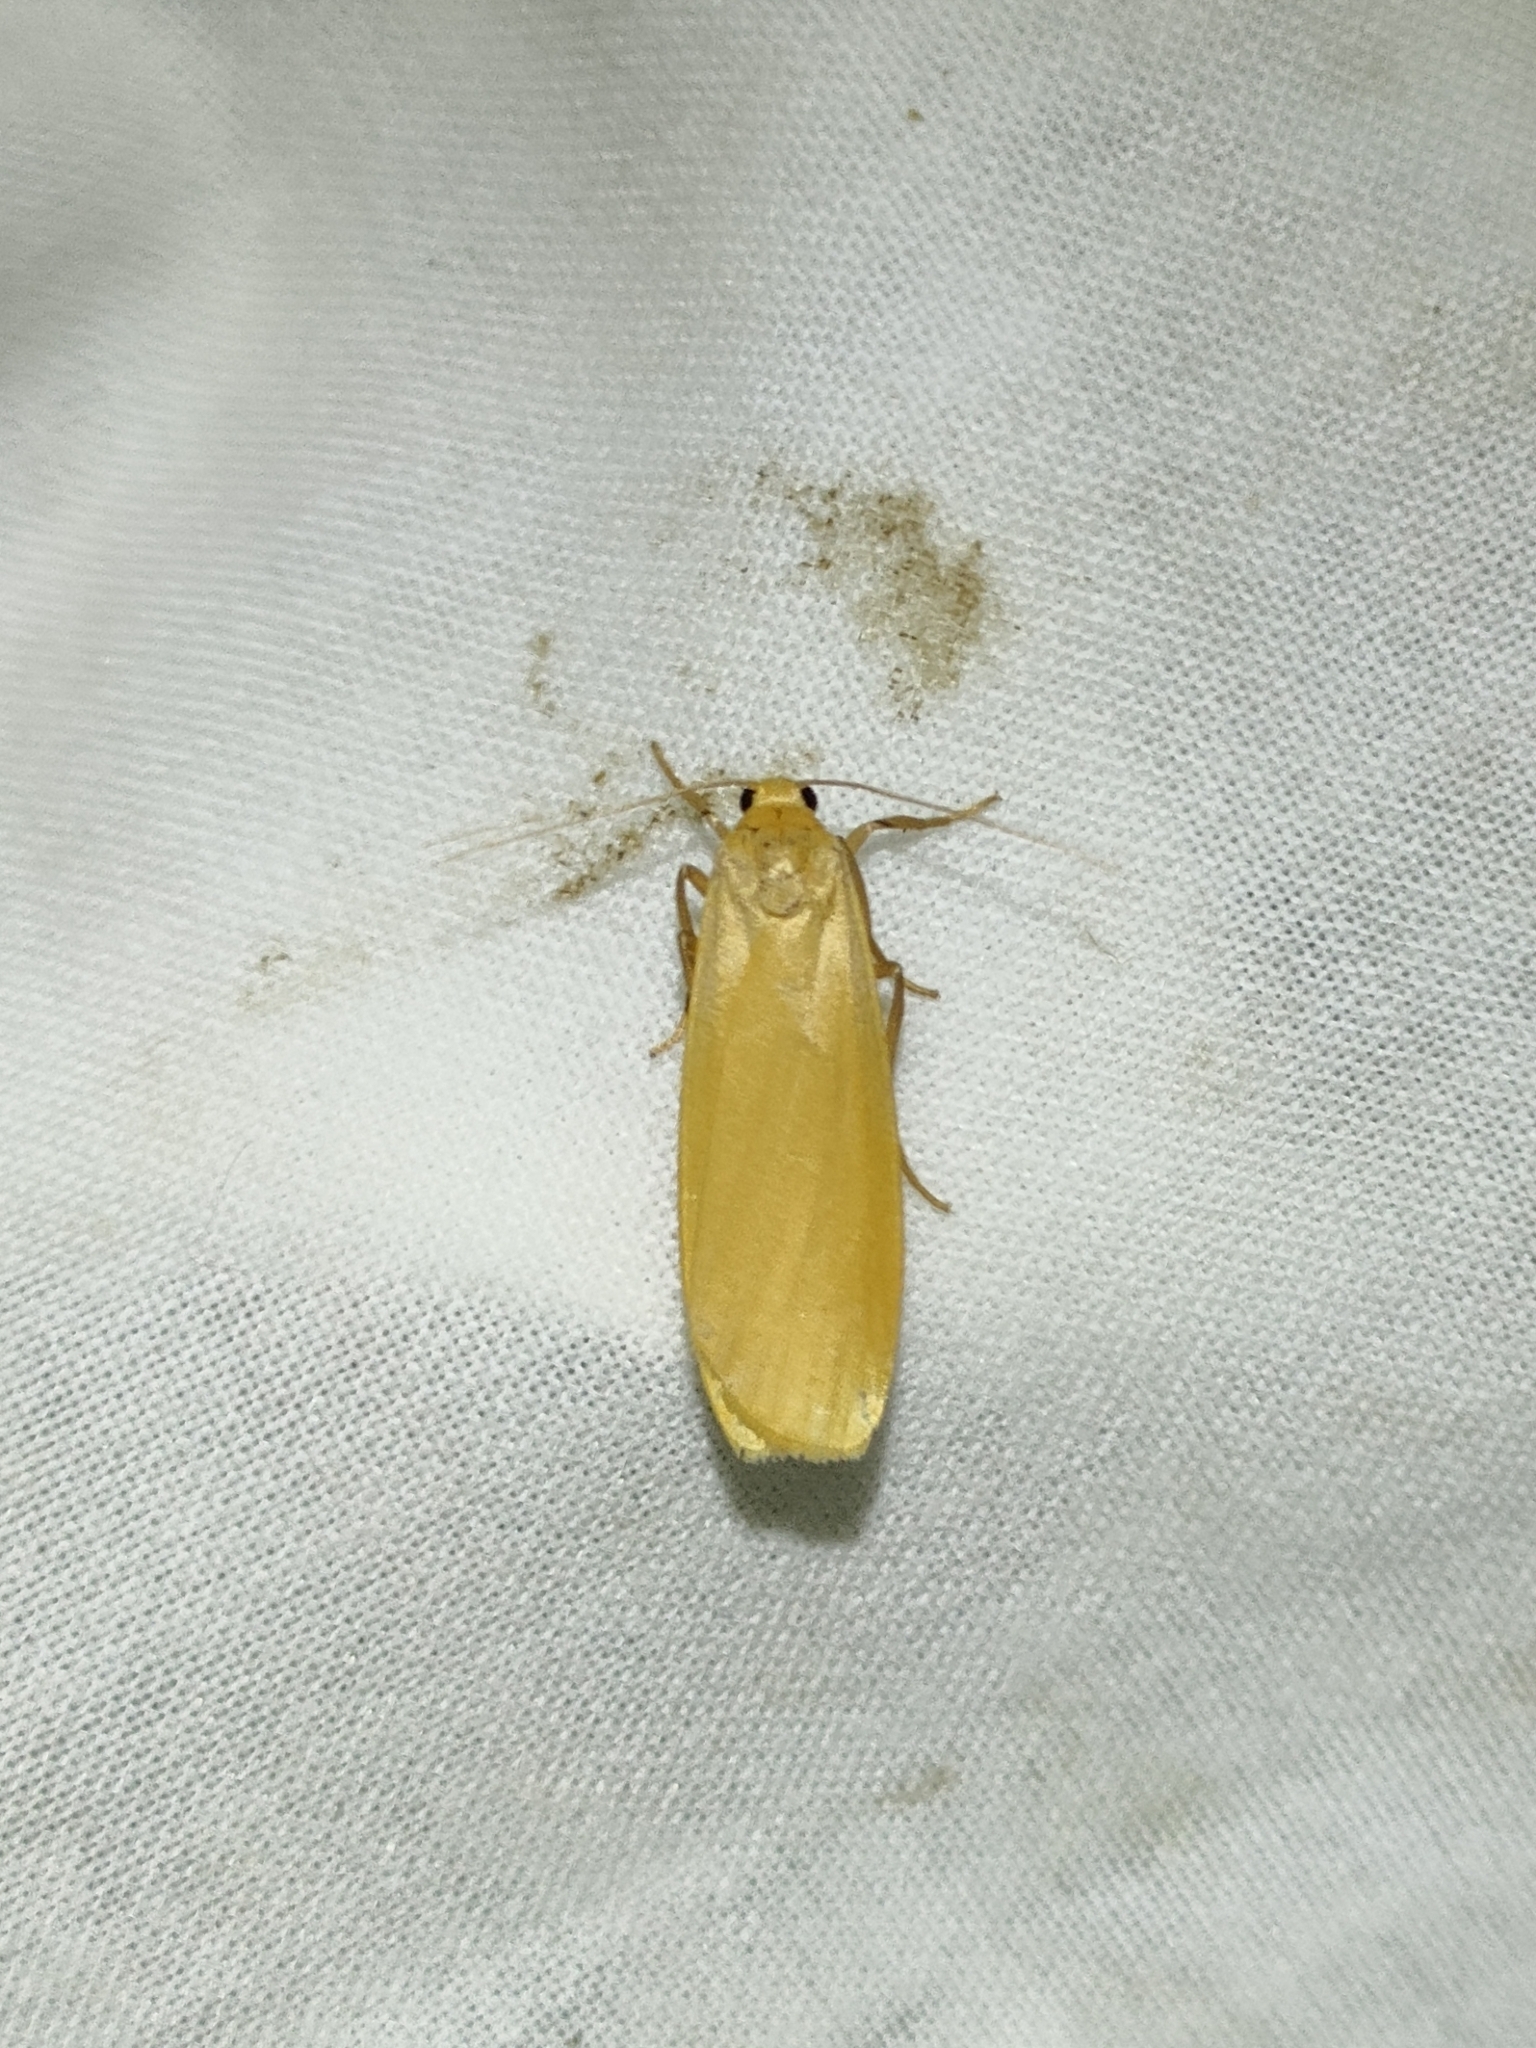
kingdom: Animalia
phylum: Arthropoda
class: Insecta
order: Lepidoptera
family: Erebidae
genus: Wittia
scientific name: Wittia sororcula
